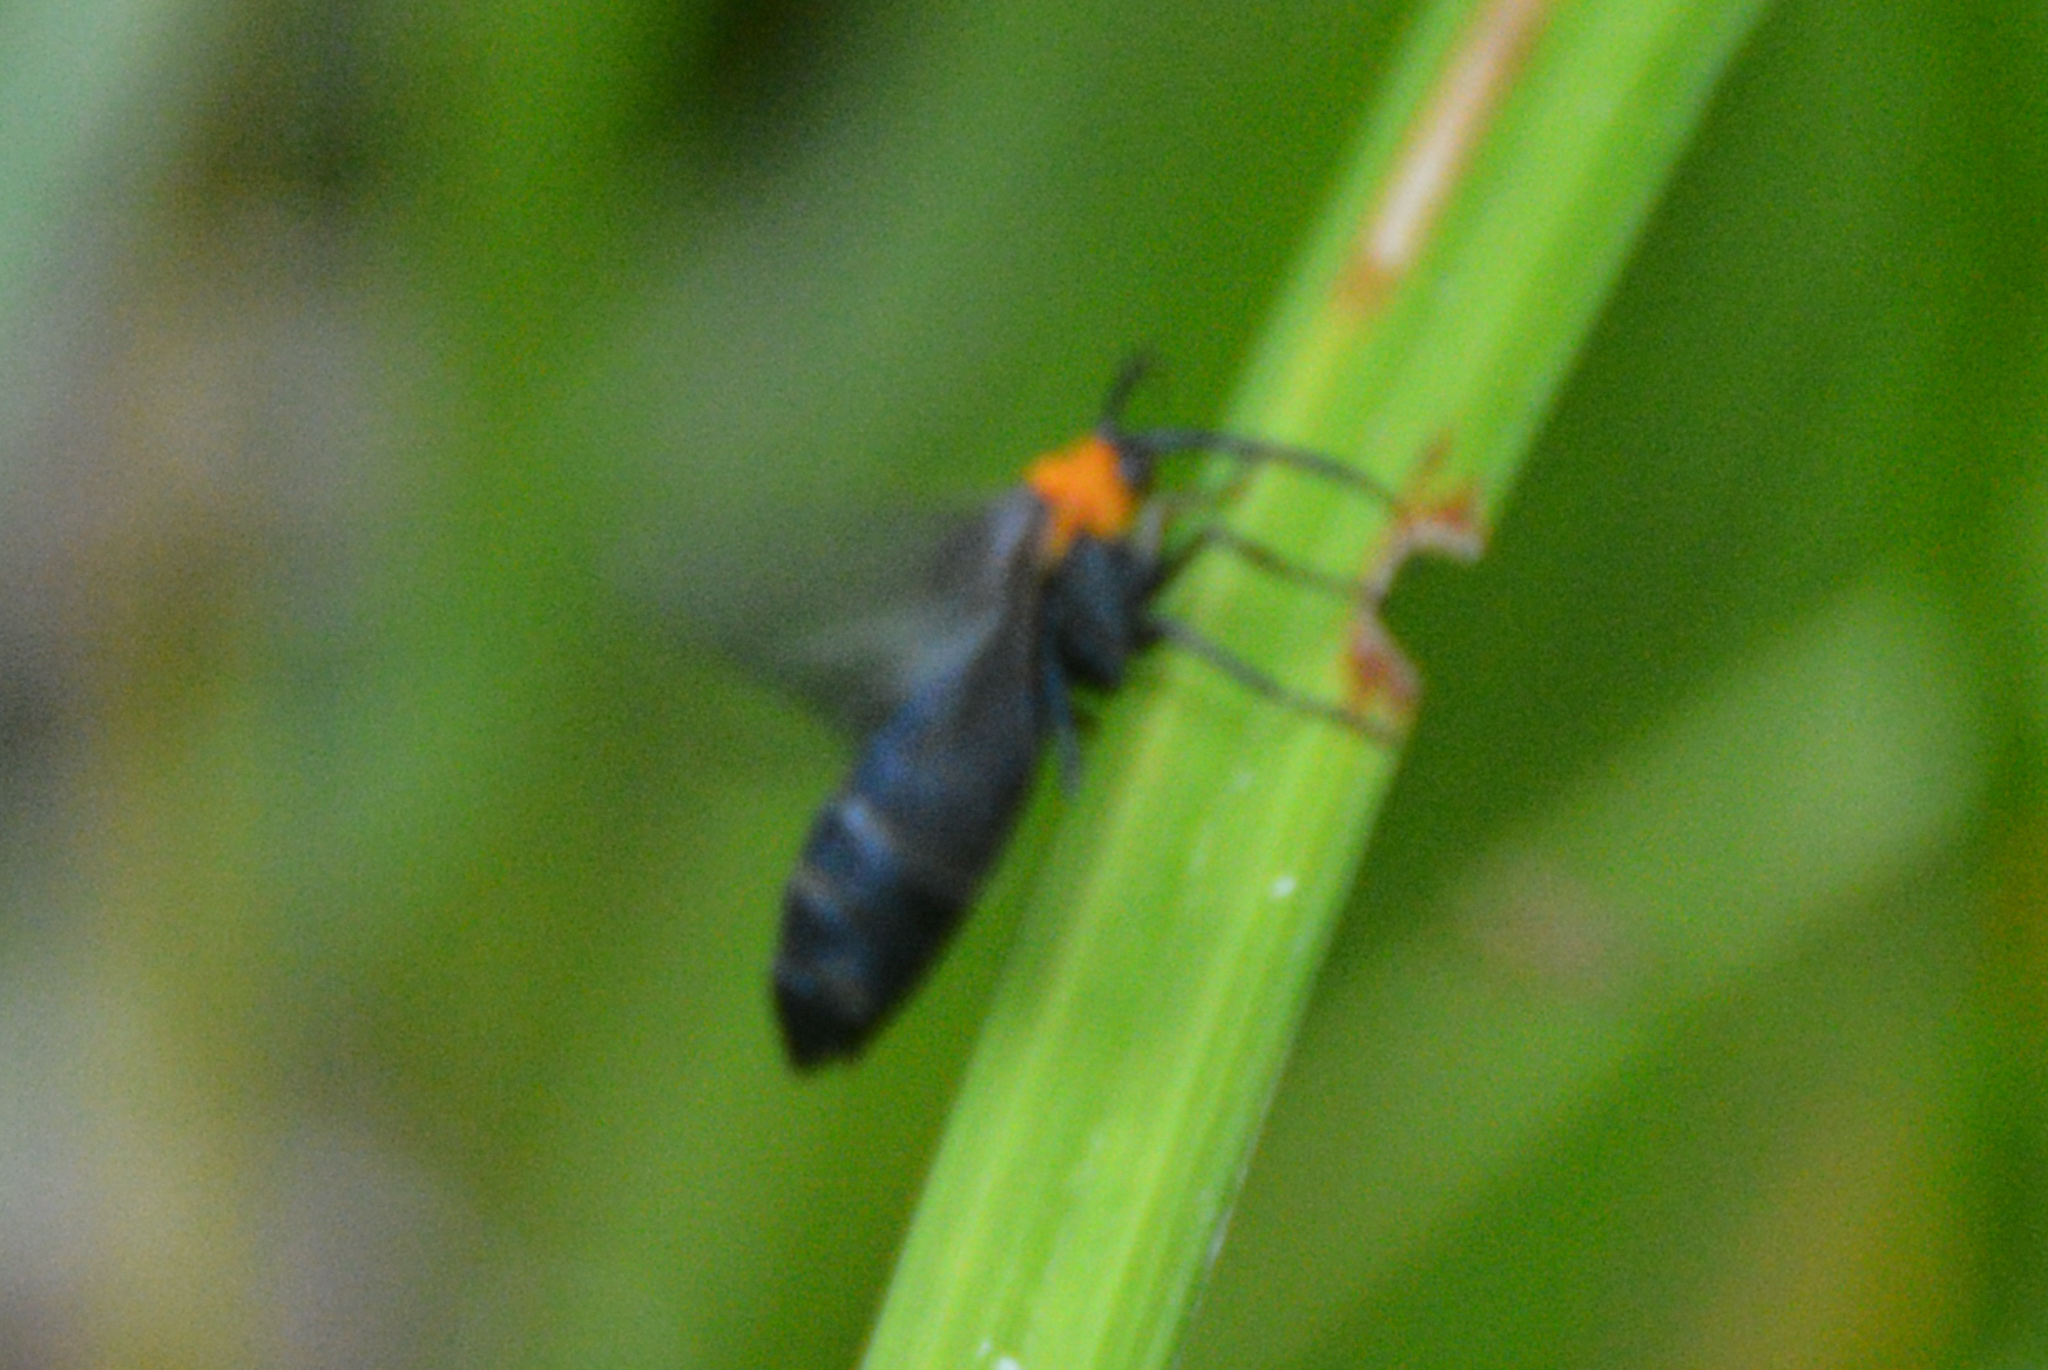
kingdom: Animalia
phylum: Arthropoda
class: Insecta
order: Lepidoptera
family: Erebidae
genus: Cisseps
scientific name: Cisseps fulvicollis
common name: Yellow-collared scape moth
